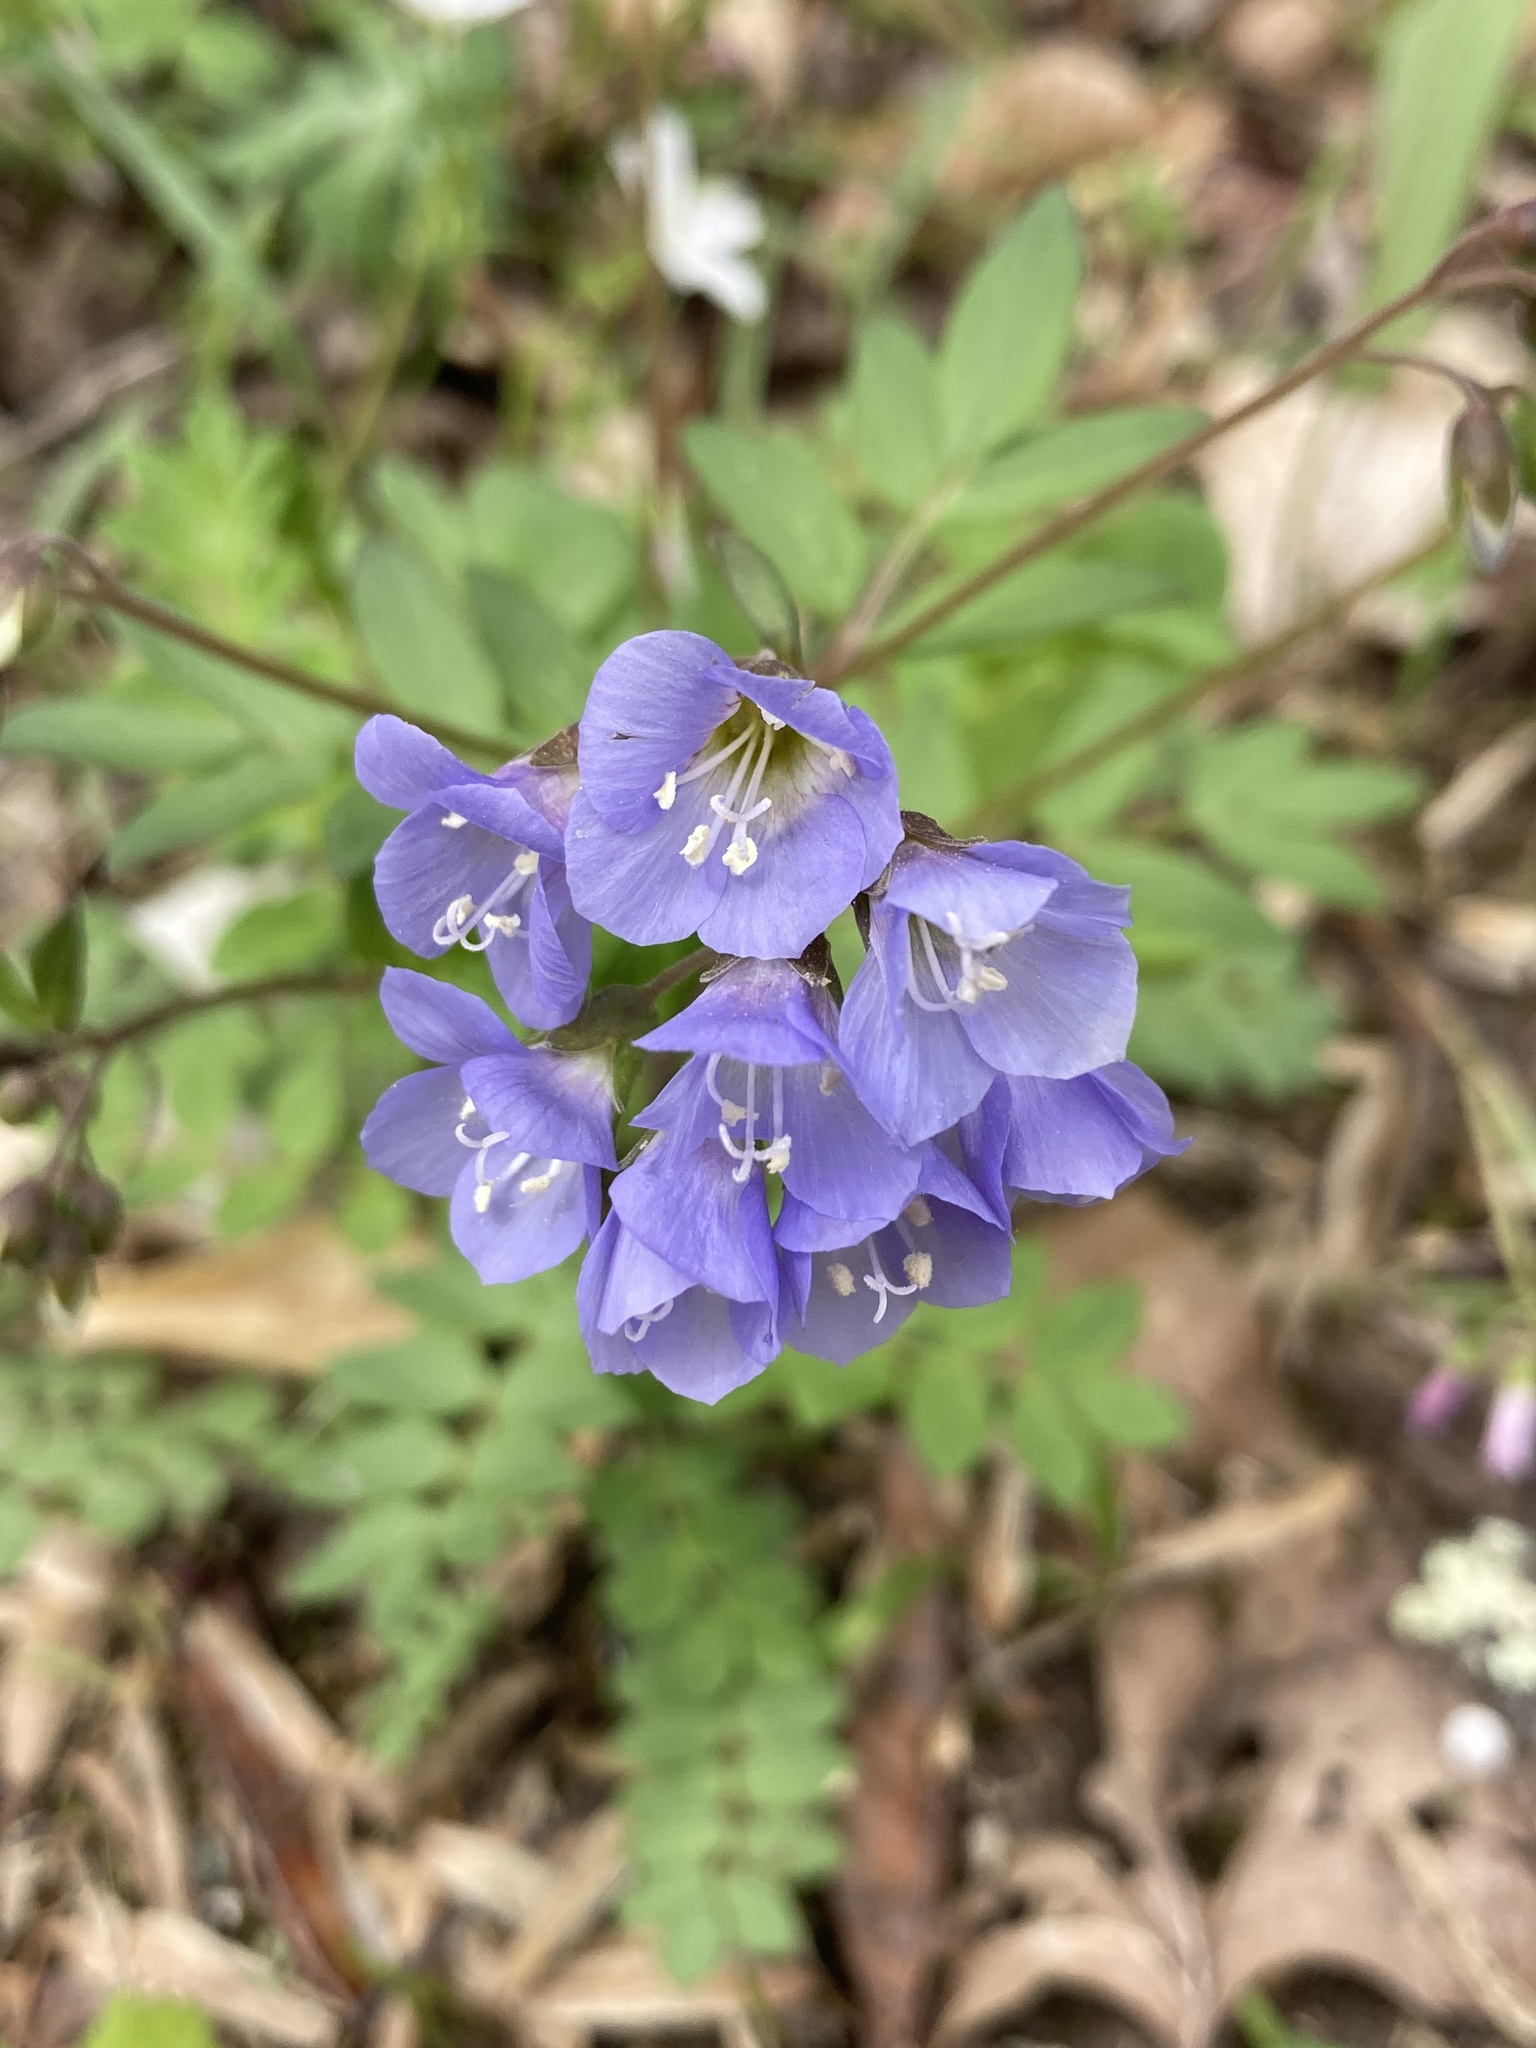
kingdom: Plantae
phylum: Tracheophyta
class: Magnoliopsida
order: Ericales
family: Polemoniaceae
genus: Polemonium
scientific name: Polemonium reptans
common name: Creeping jacob's-ladder
